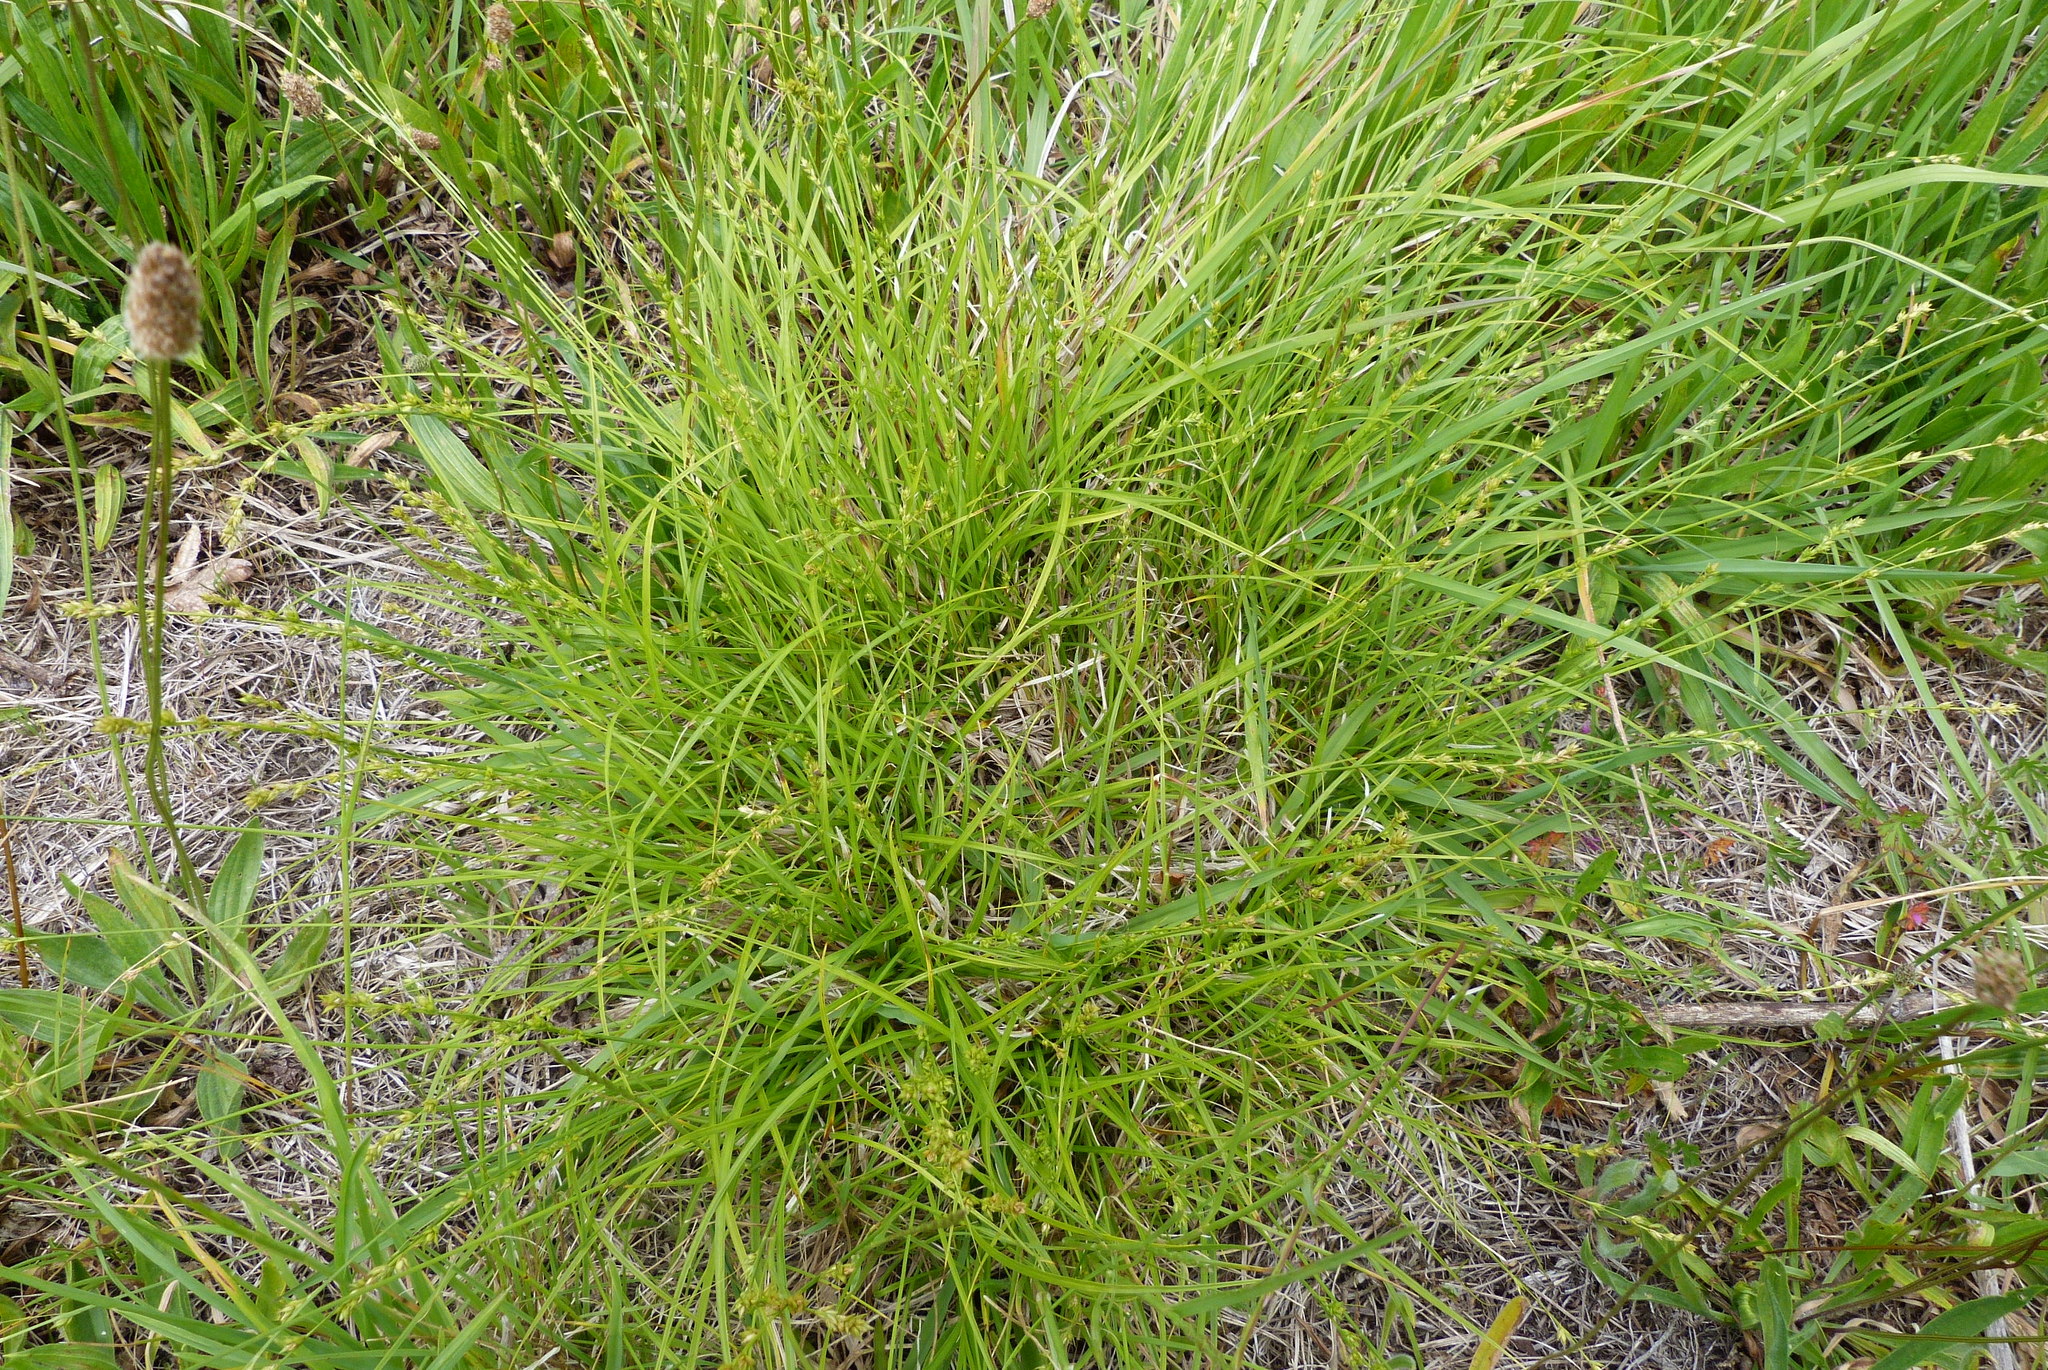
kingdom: Plantae
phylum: Tracheophyta
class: Liliopsida
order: Poales
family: Cyperaceae
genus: Carex
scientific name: Carex divulsa
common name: Grassland sedge
